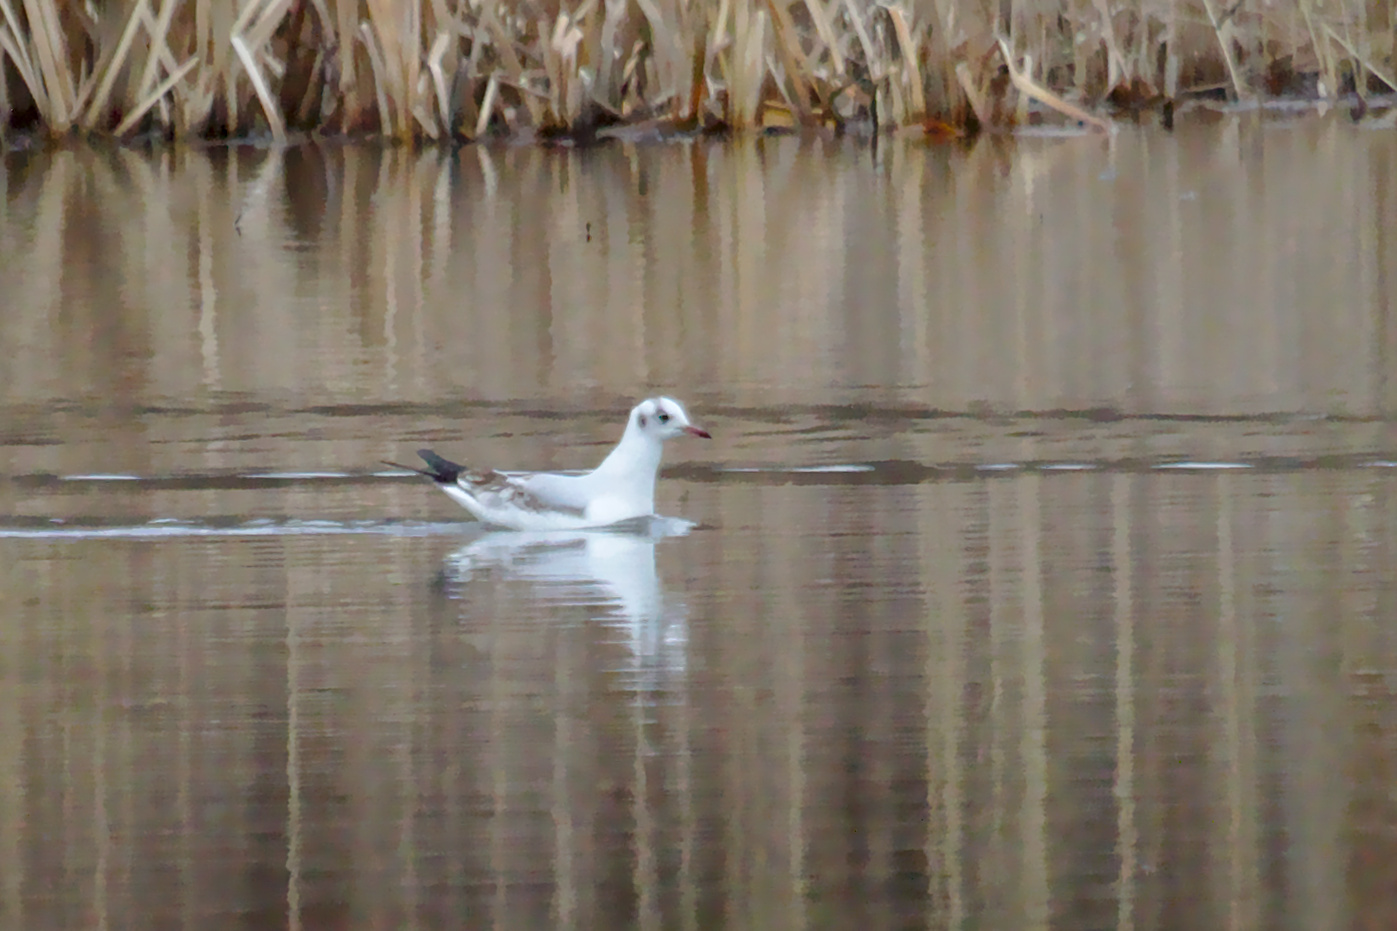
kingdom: Animalia
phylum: Chordata
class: Aves
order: Charadriiformes
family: Laridae
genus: Chroicocephalus
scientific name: Chroicocephalus ridibundus
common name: Black-headed gull
